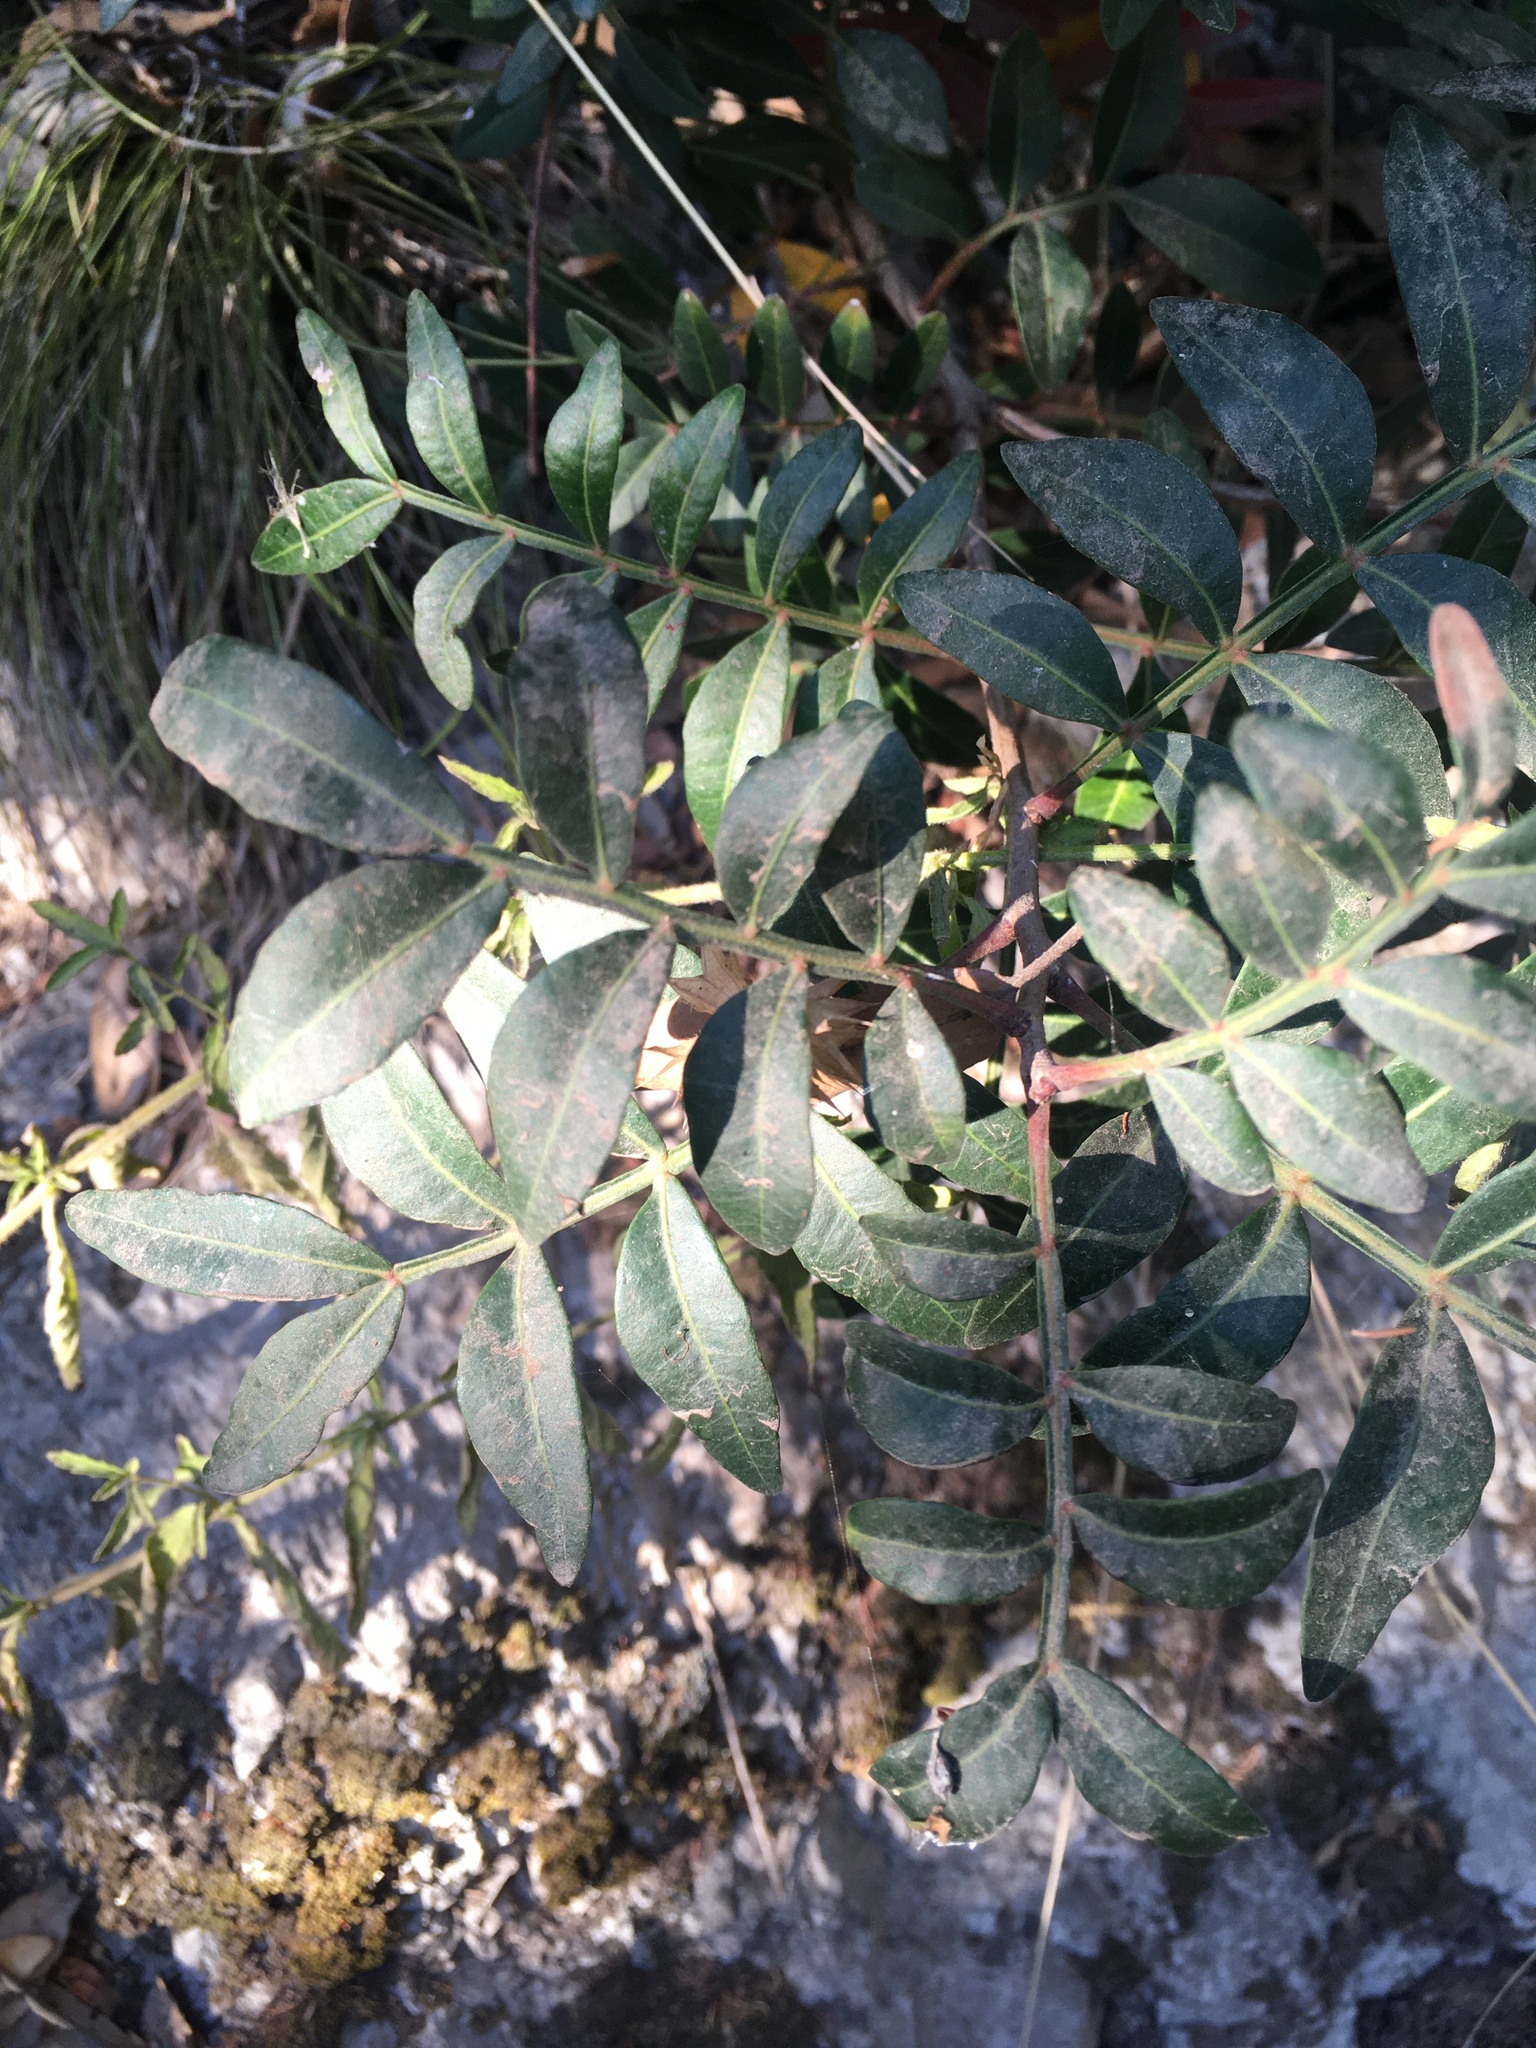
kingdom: Plantae
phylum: Tracheophyta
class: Magnoliopsida
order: Sapindales
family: Anacardiaceae
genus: Pistacia
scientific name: Pistacia lentiscus
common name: Lentisk
